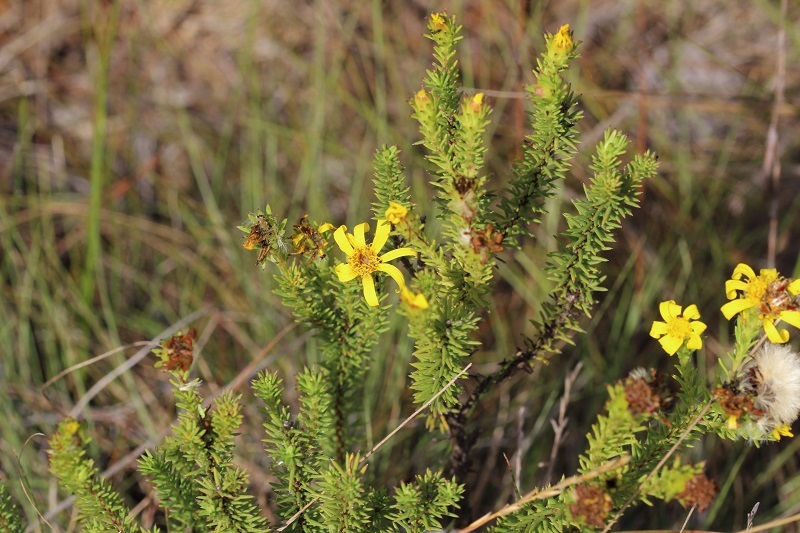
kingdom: Plantae
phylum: Tracheophyta
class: Magnoliopsida
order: Asterales
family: Asteraceae
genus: Senecio
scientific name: Senecio pinifolius
